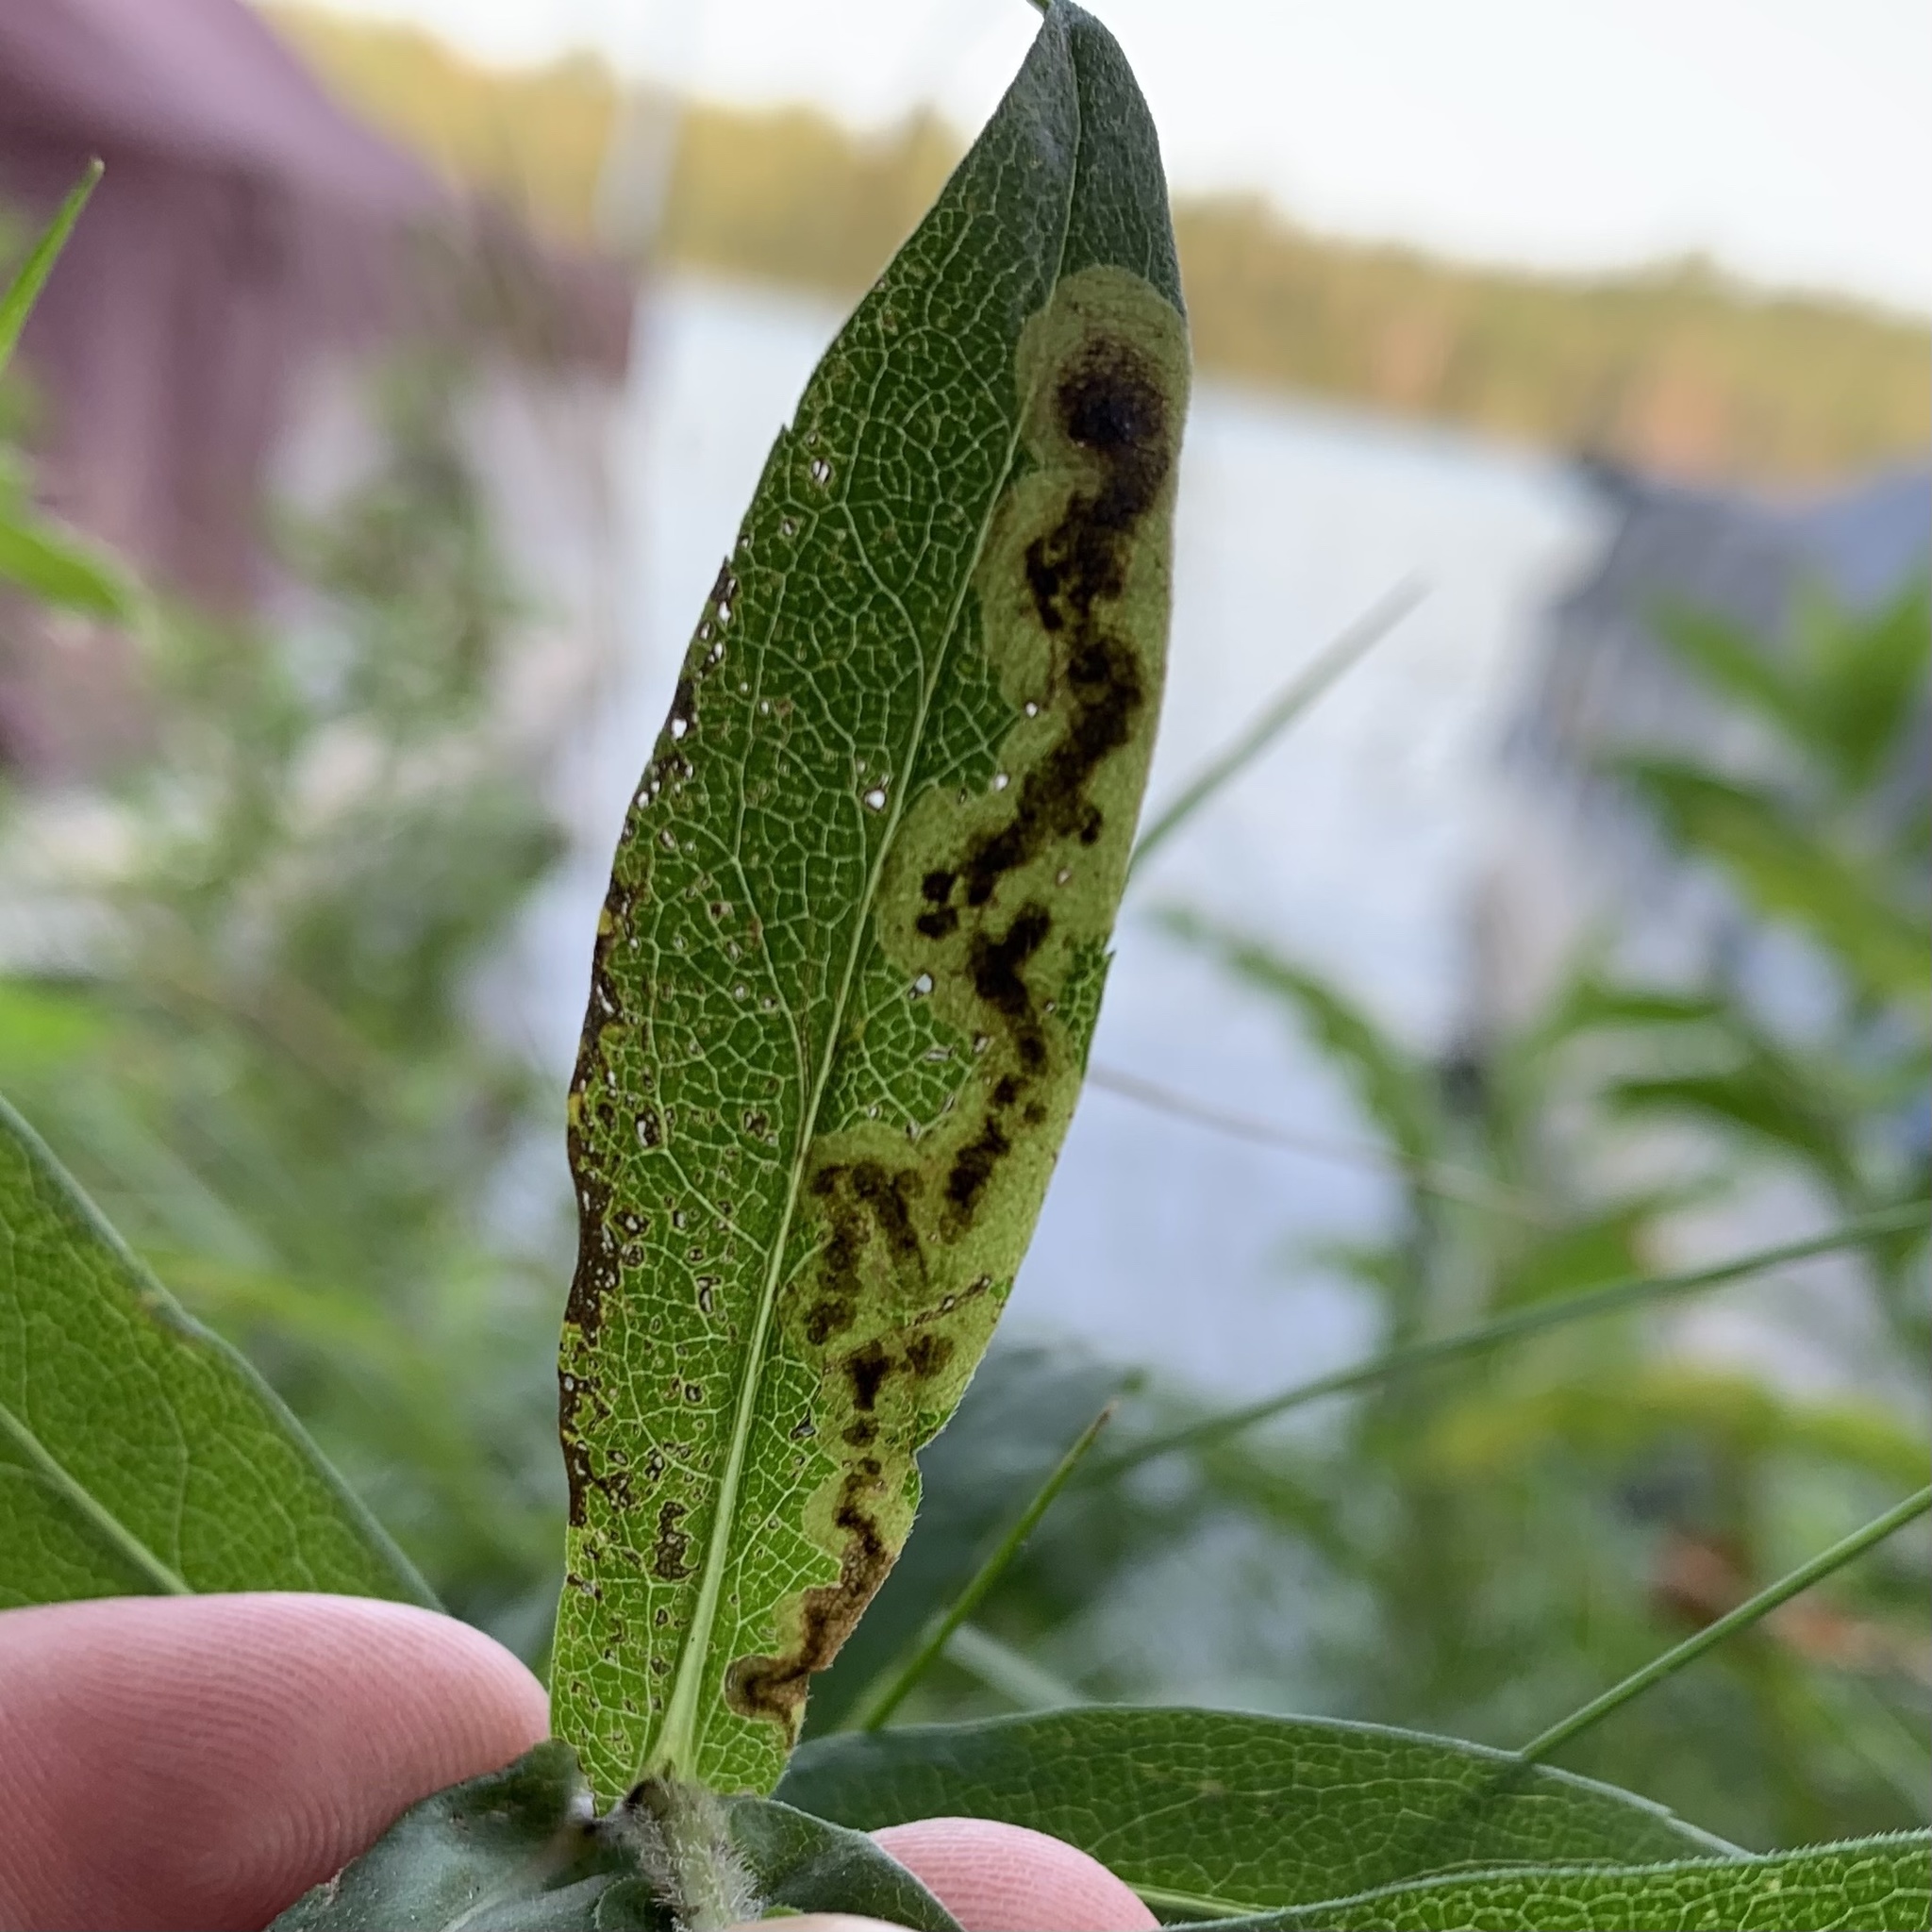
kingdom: Animalia
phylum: Arthropoda
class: Insecta
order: Diptera
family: Agromyzidae
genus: Nemorimyza
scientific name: Nemorimyza posticata
